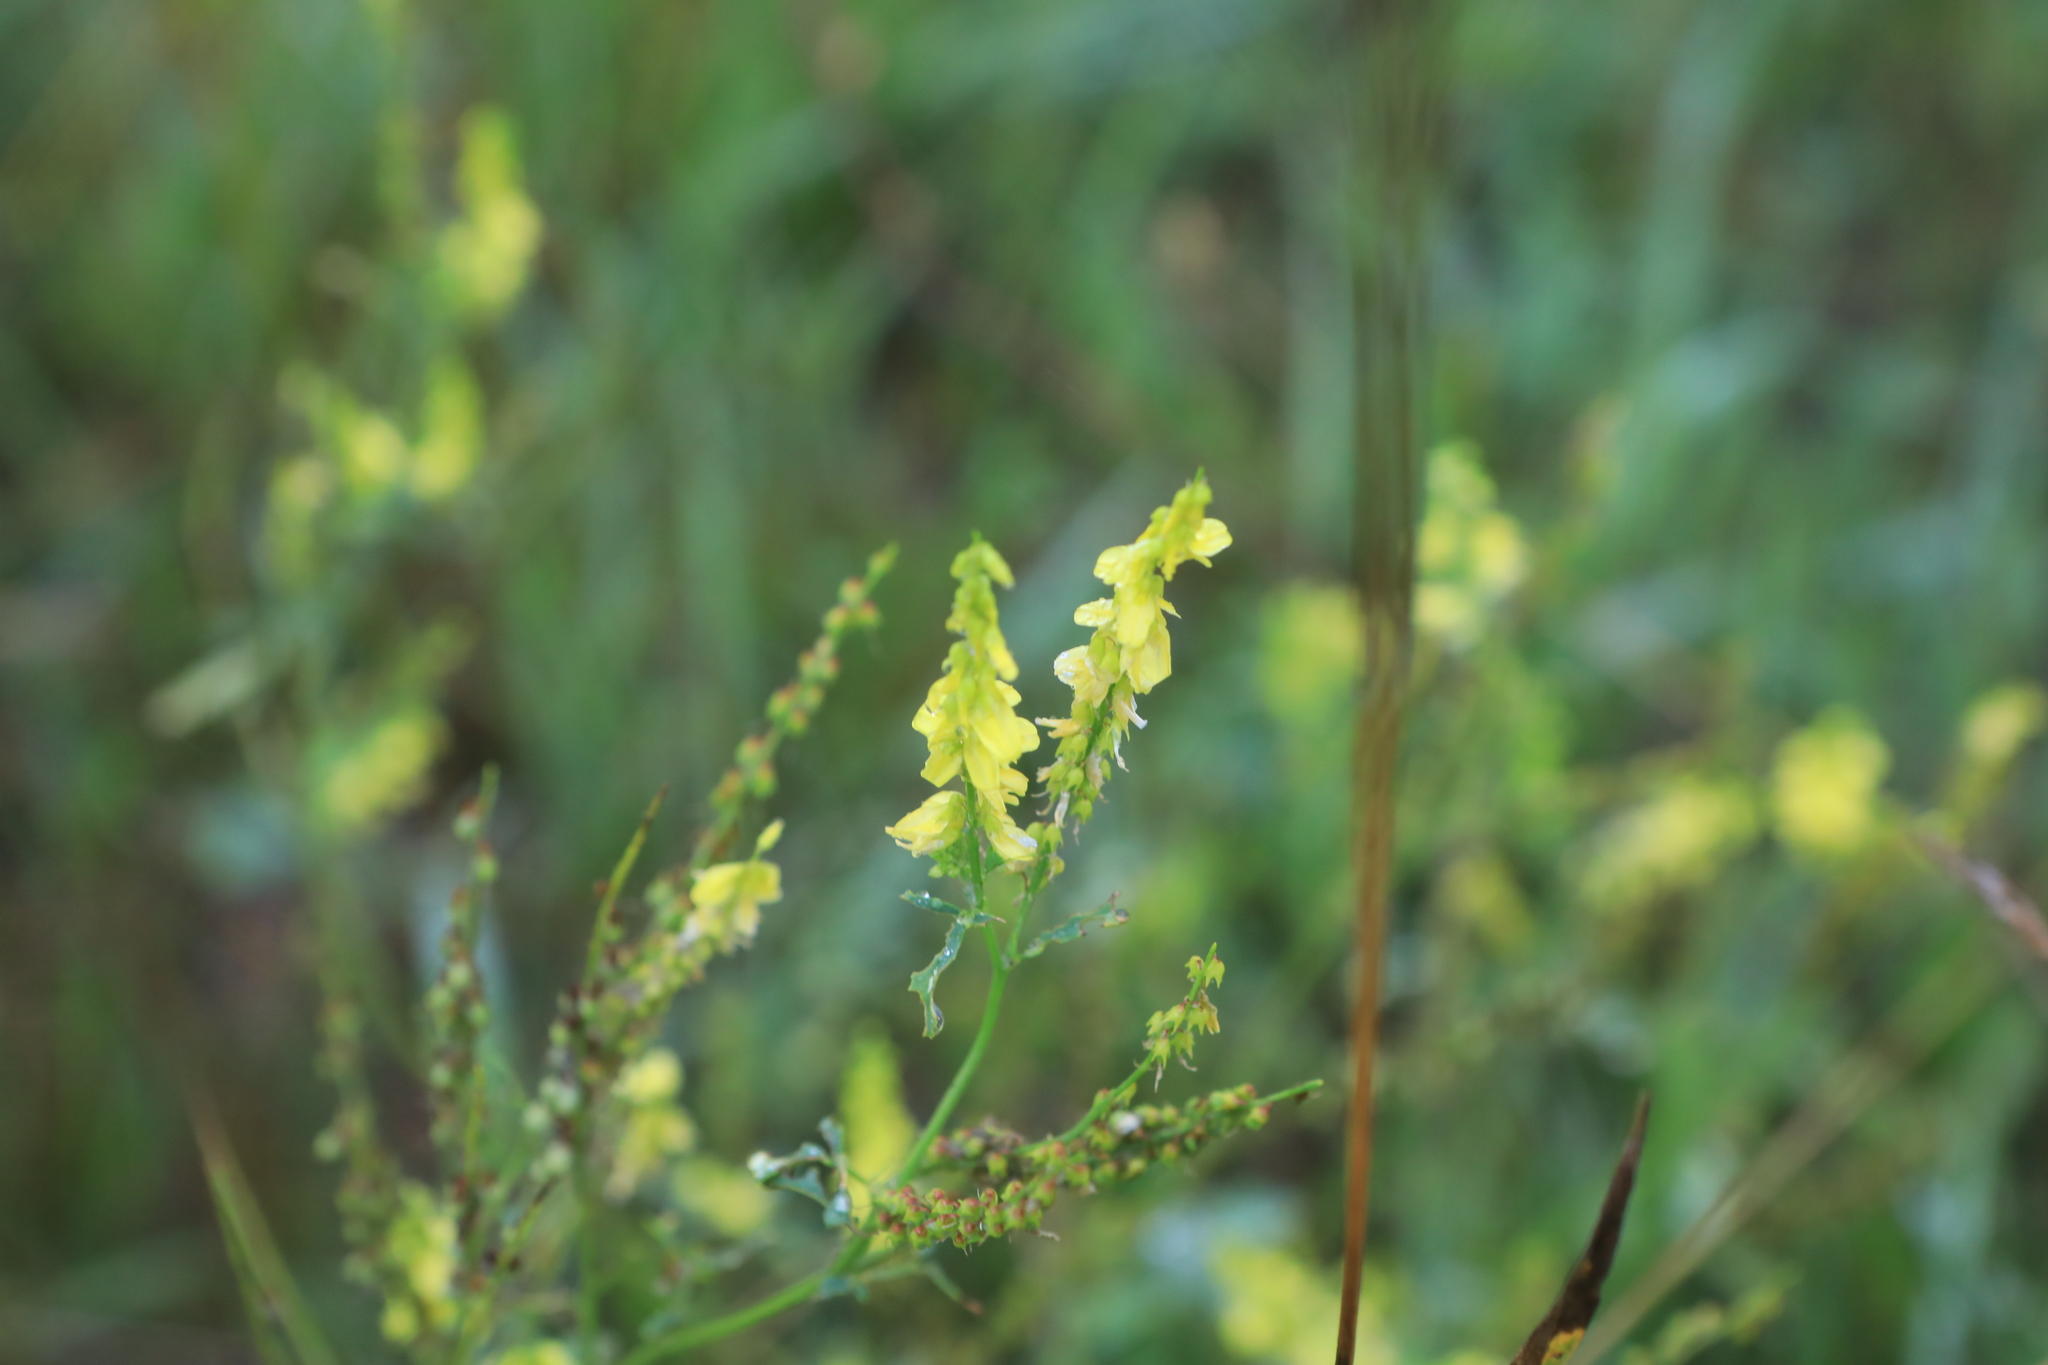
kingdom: Plantae
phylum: Tracheophyta
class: Magnoliopsida
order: Fabales
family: Fabaceae
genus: Melilotus
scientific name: Melilotus officinalis
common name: Sweetclover
